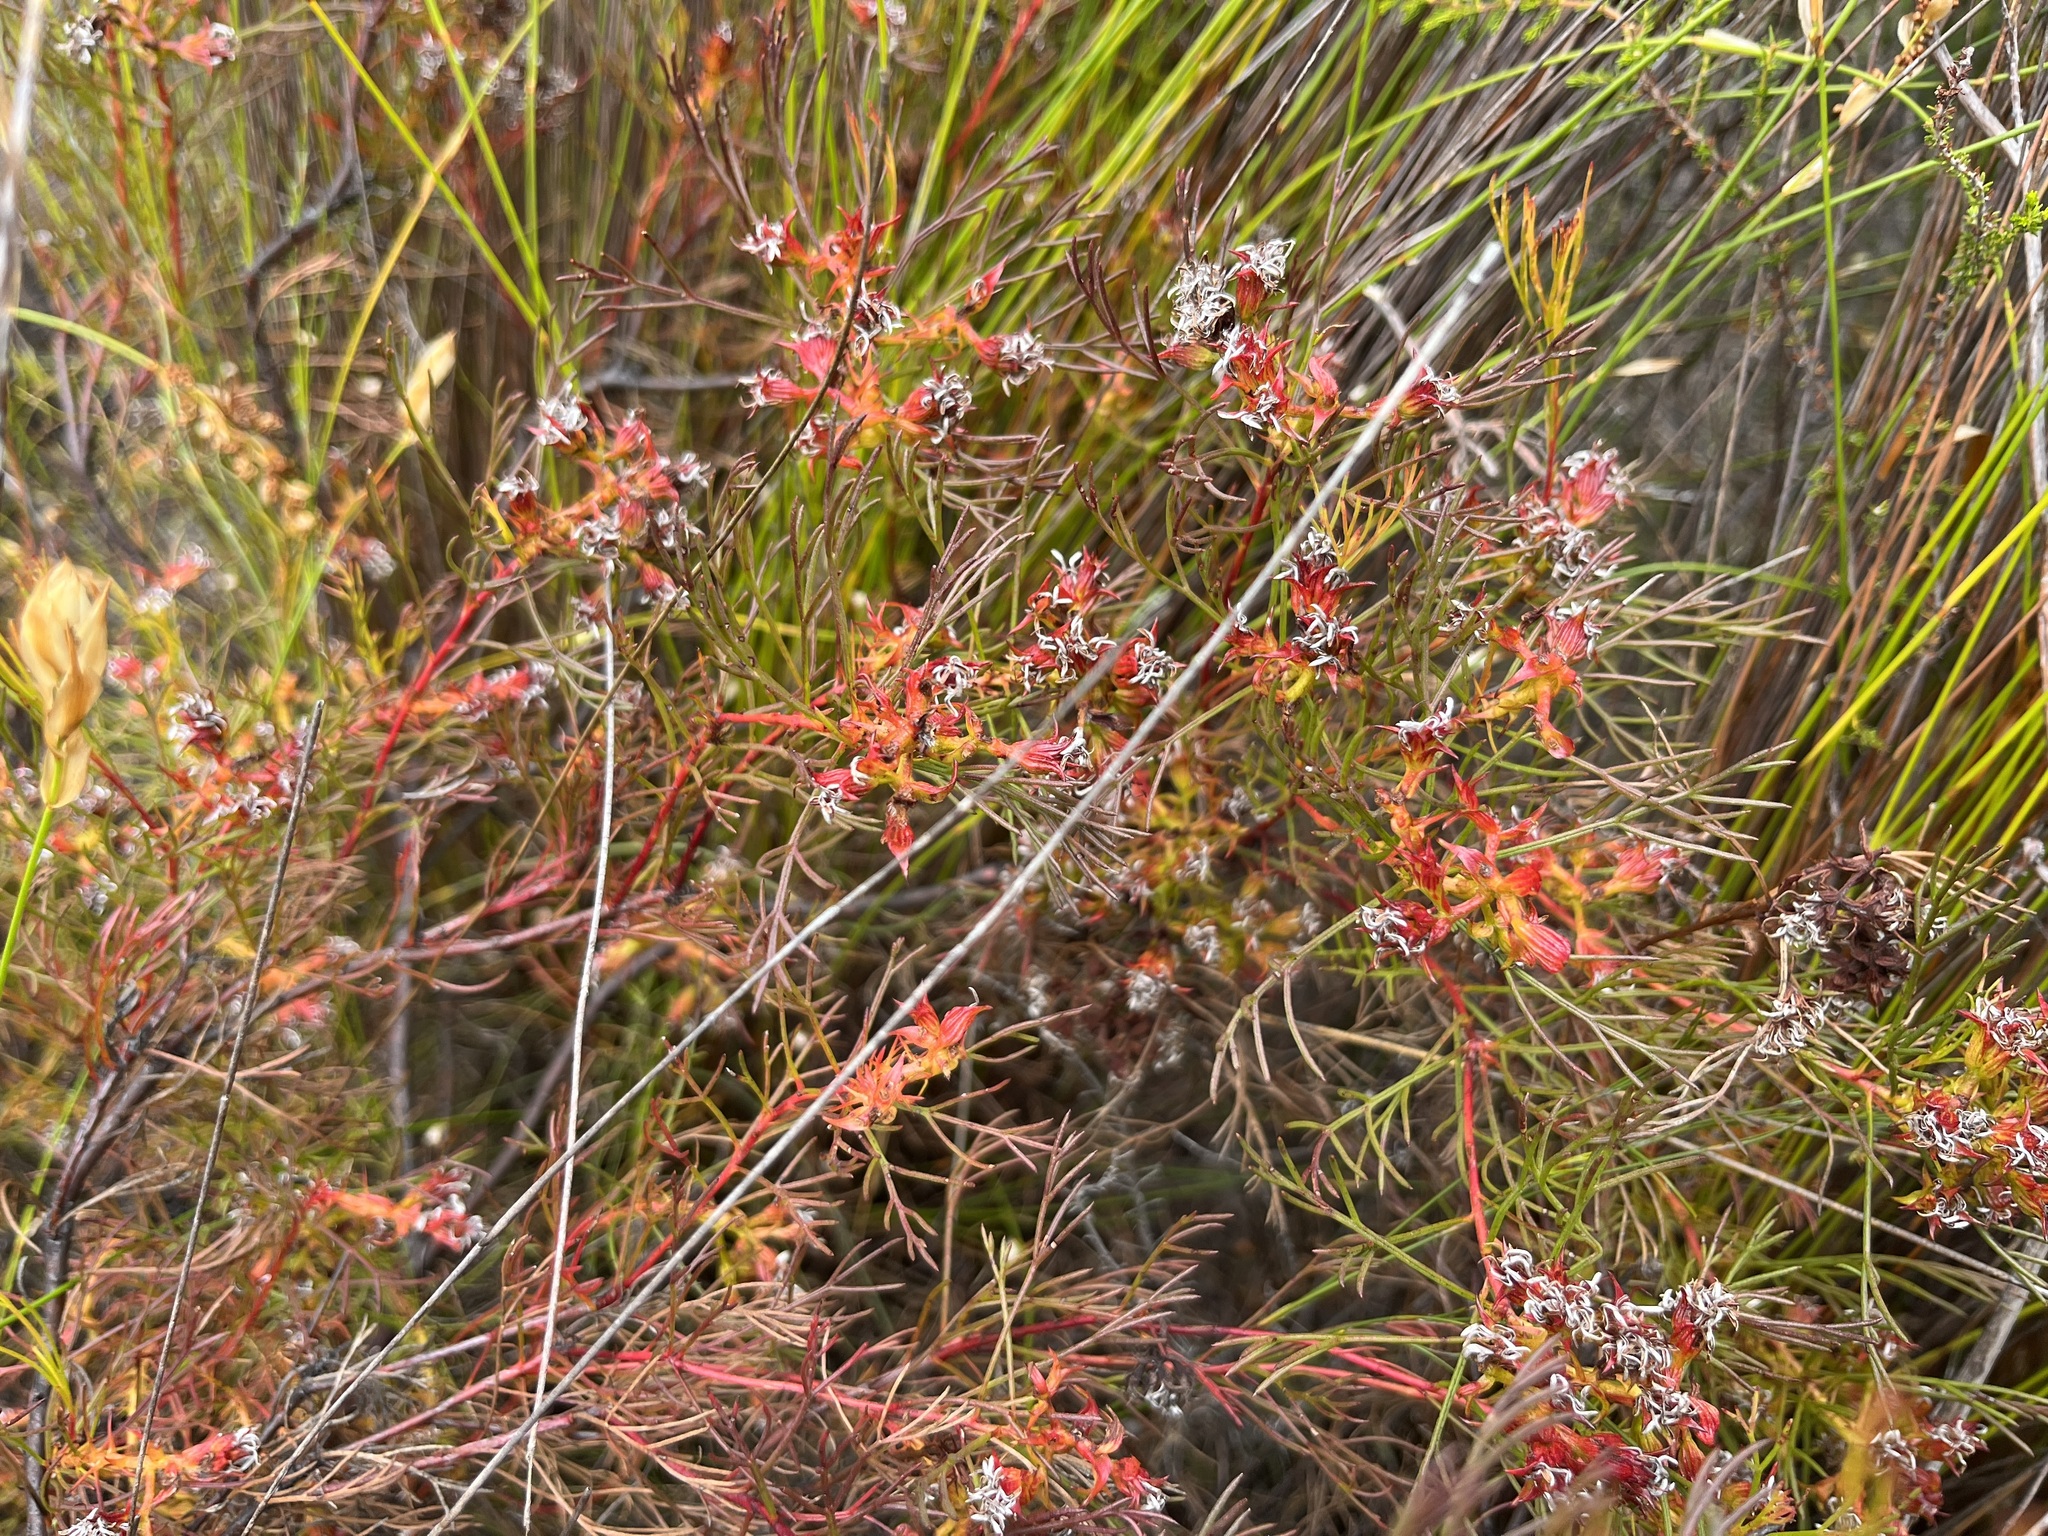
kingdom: Plantae
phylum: Tracheophyta
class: Magnoliopsida
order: Proteales
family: Proteaceae
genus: Serruria
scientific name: Serruria bolusii
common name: Agulhas spiderhead
